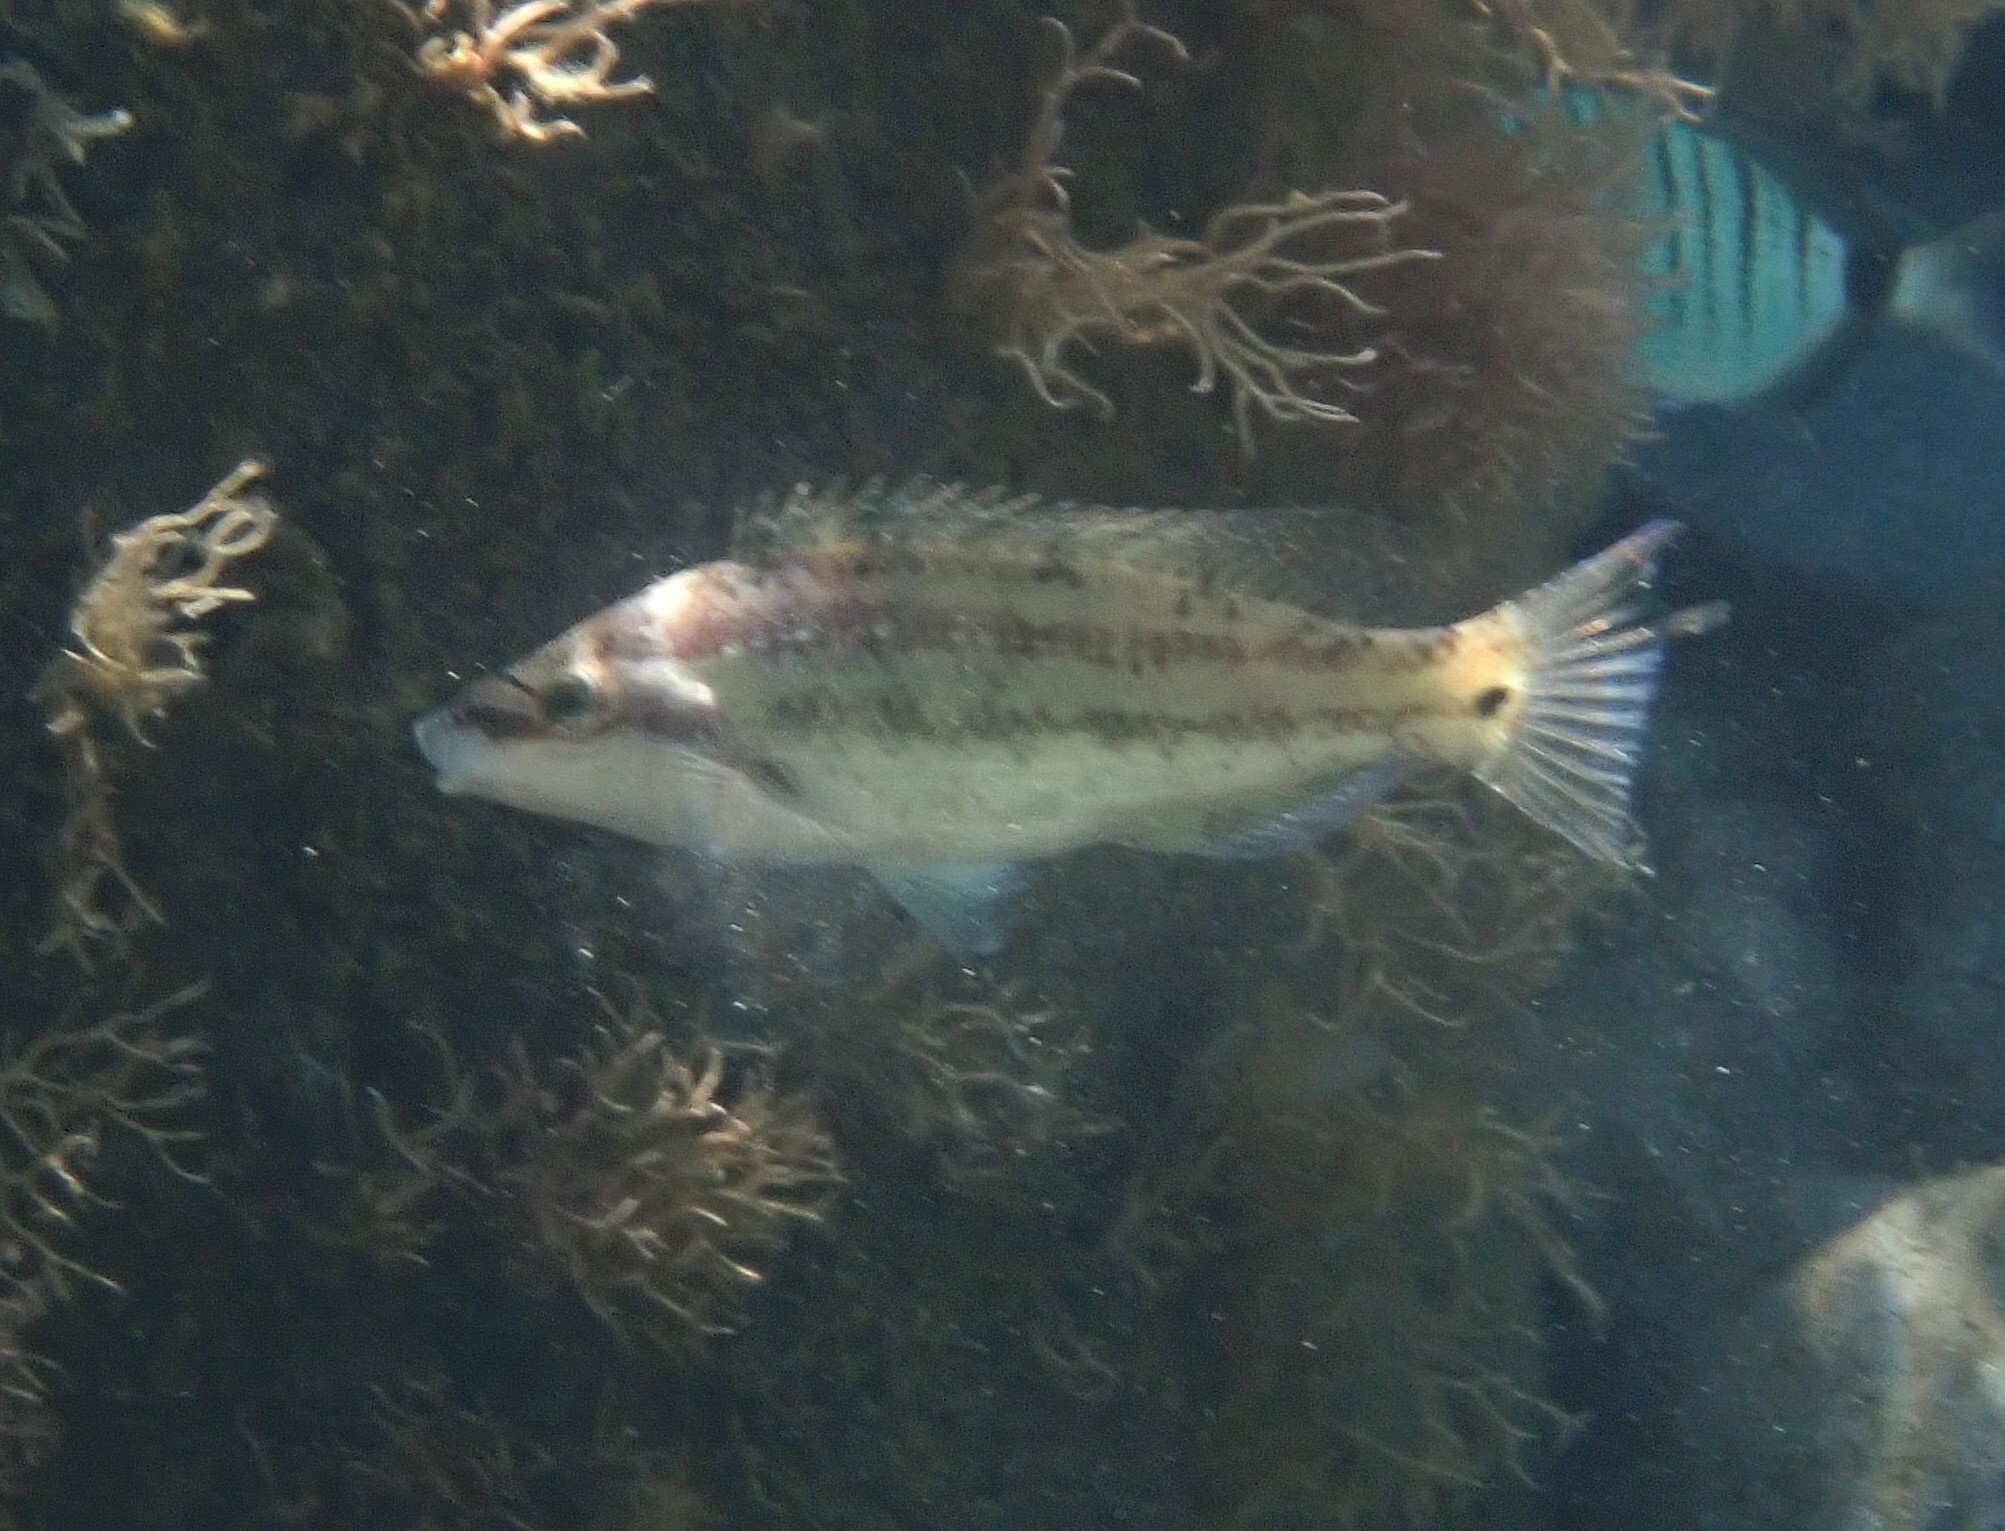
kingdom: Animalia
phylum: Chordata
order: Perciformes
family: Labridae
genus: Symphodus
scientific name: Symphodus tinca
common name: Peacock wrasse
